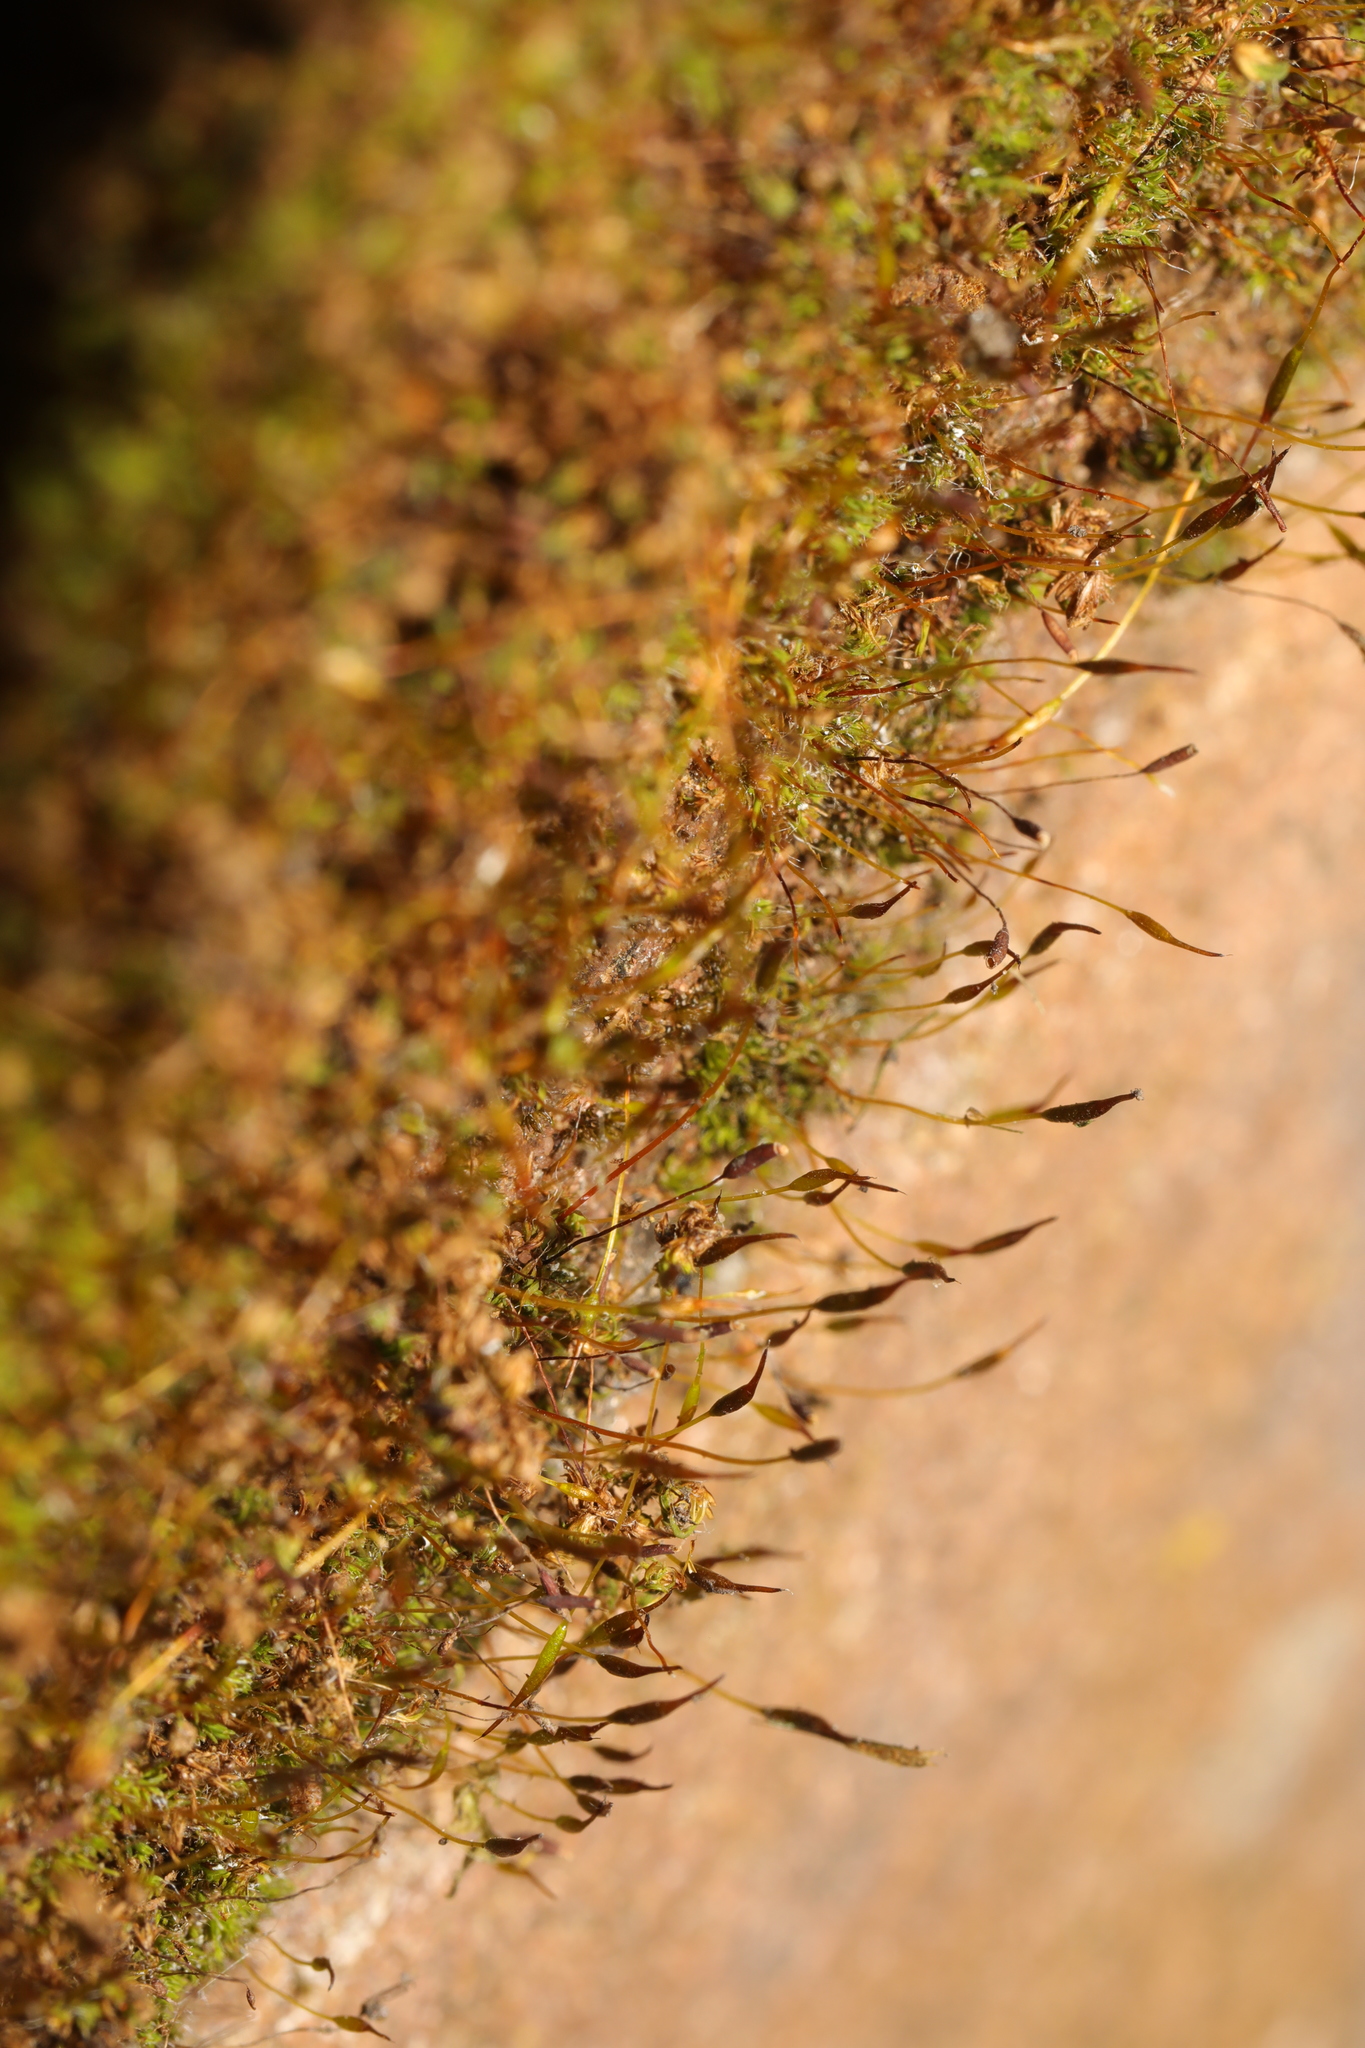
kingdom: Plantae
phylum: Bryophyta
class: Bryopsida
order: Pottiales
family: Pottiaceae
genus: Tortula
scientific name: Tortula muralis
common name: Wall screw-moss
